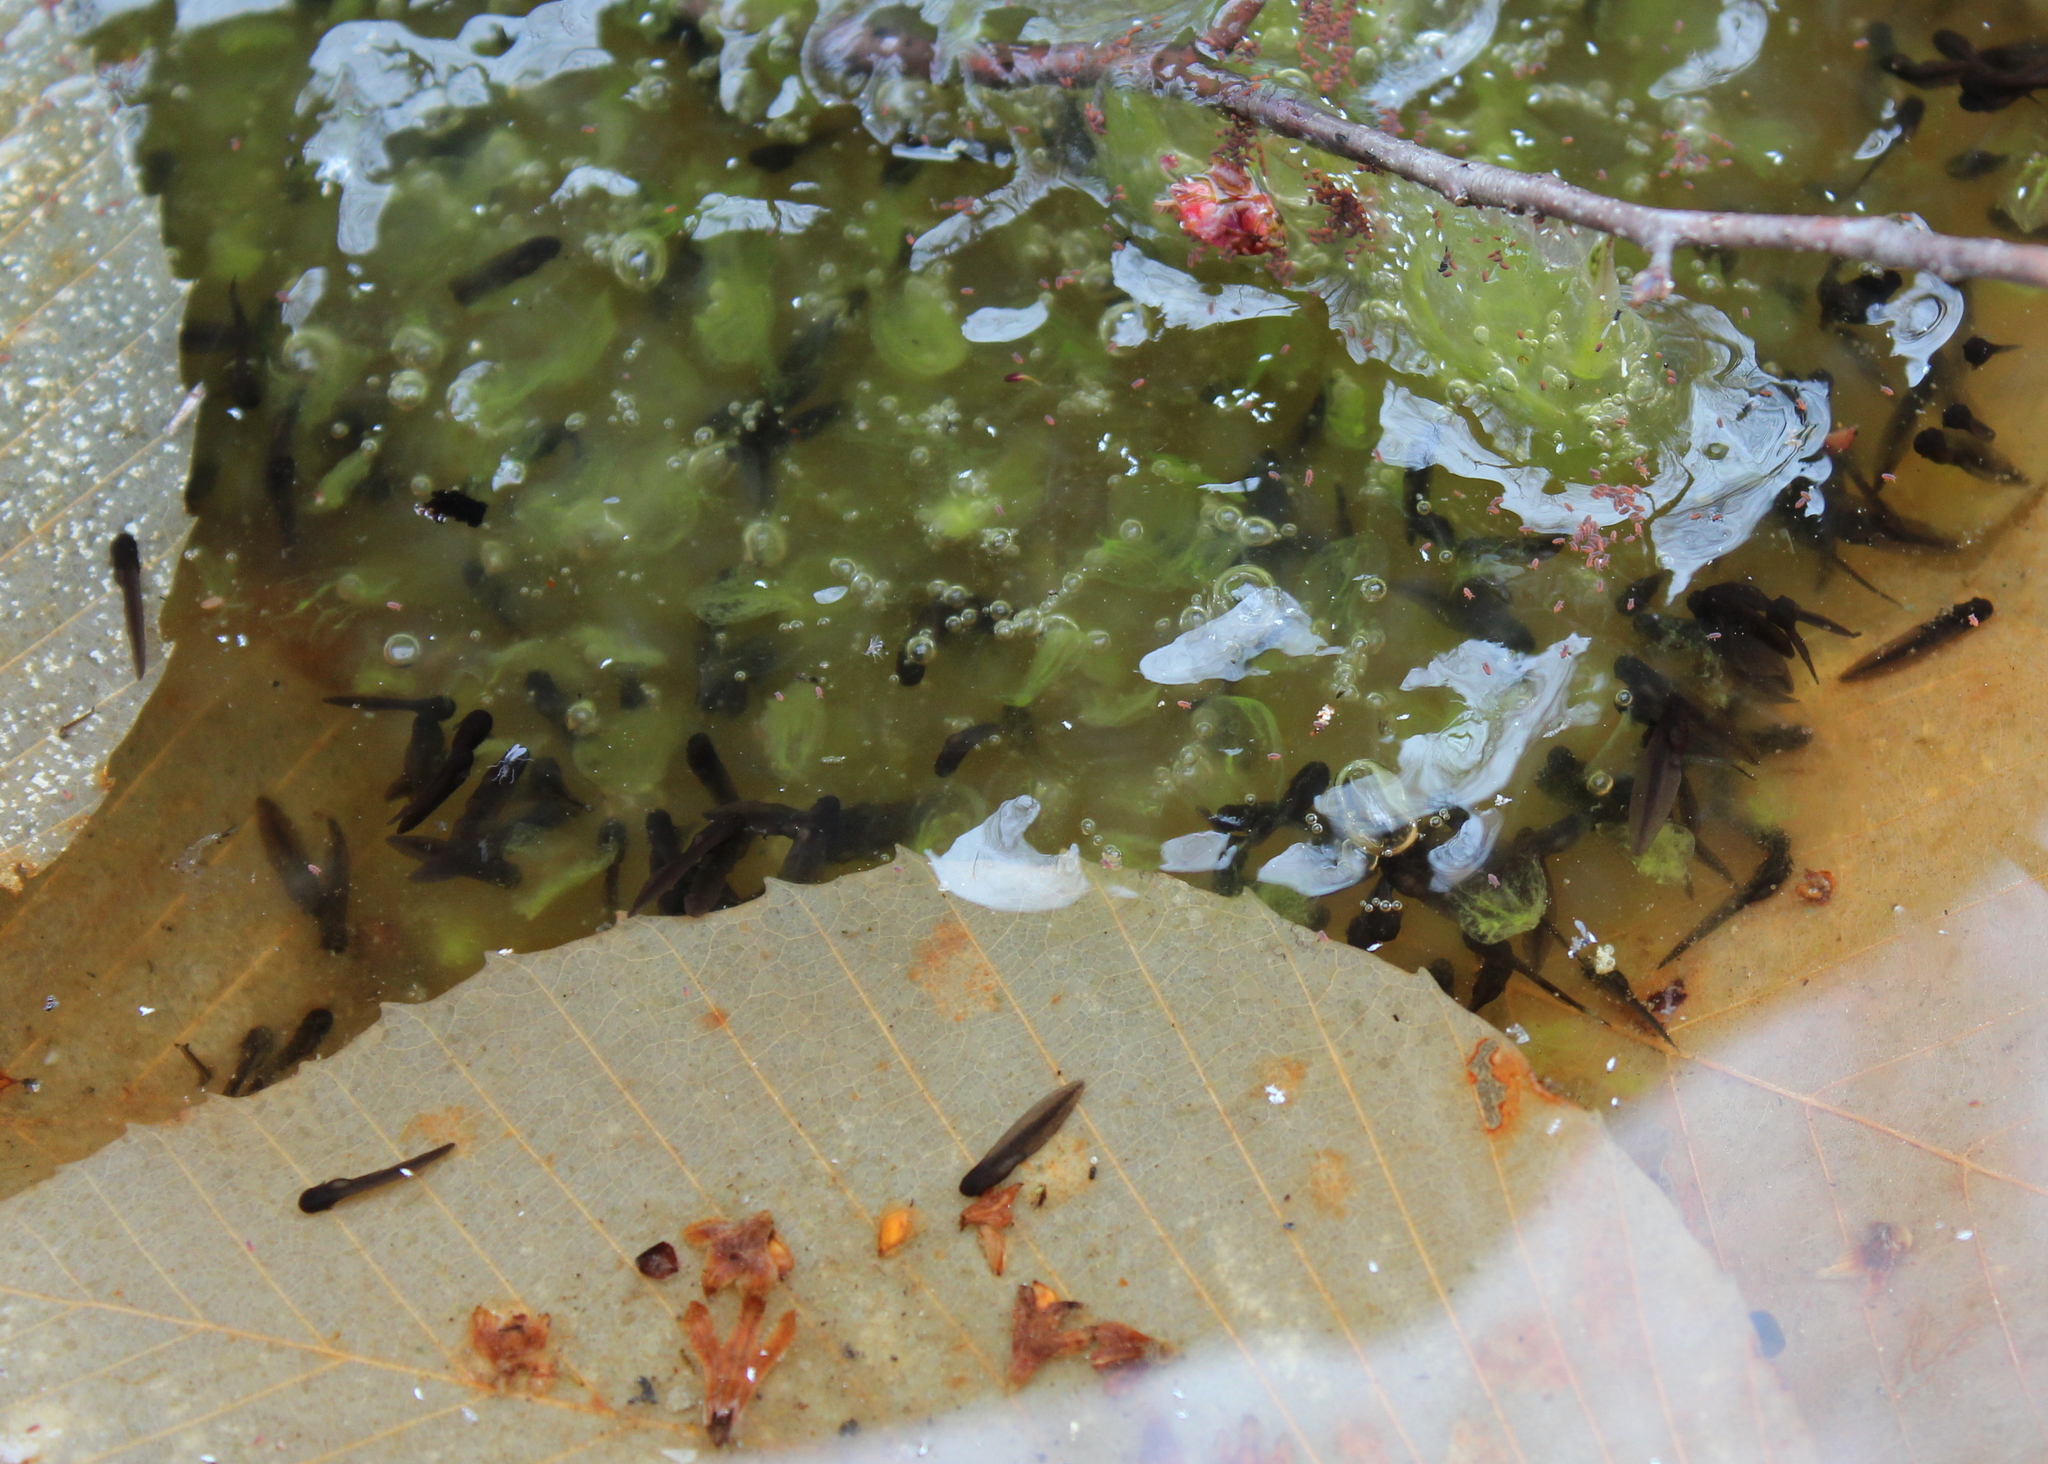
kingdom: Animalia
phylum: Chordata
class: Amphibia
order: Anura
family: Ranidae
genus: Lithobates
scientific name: Lithobates sylvaticus
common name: Wood frog
